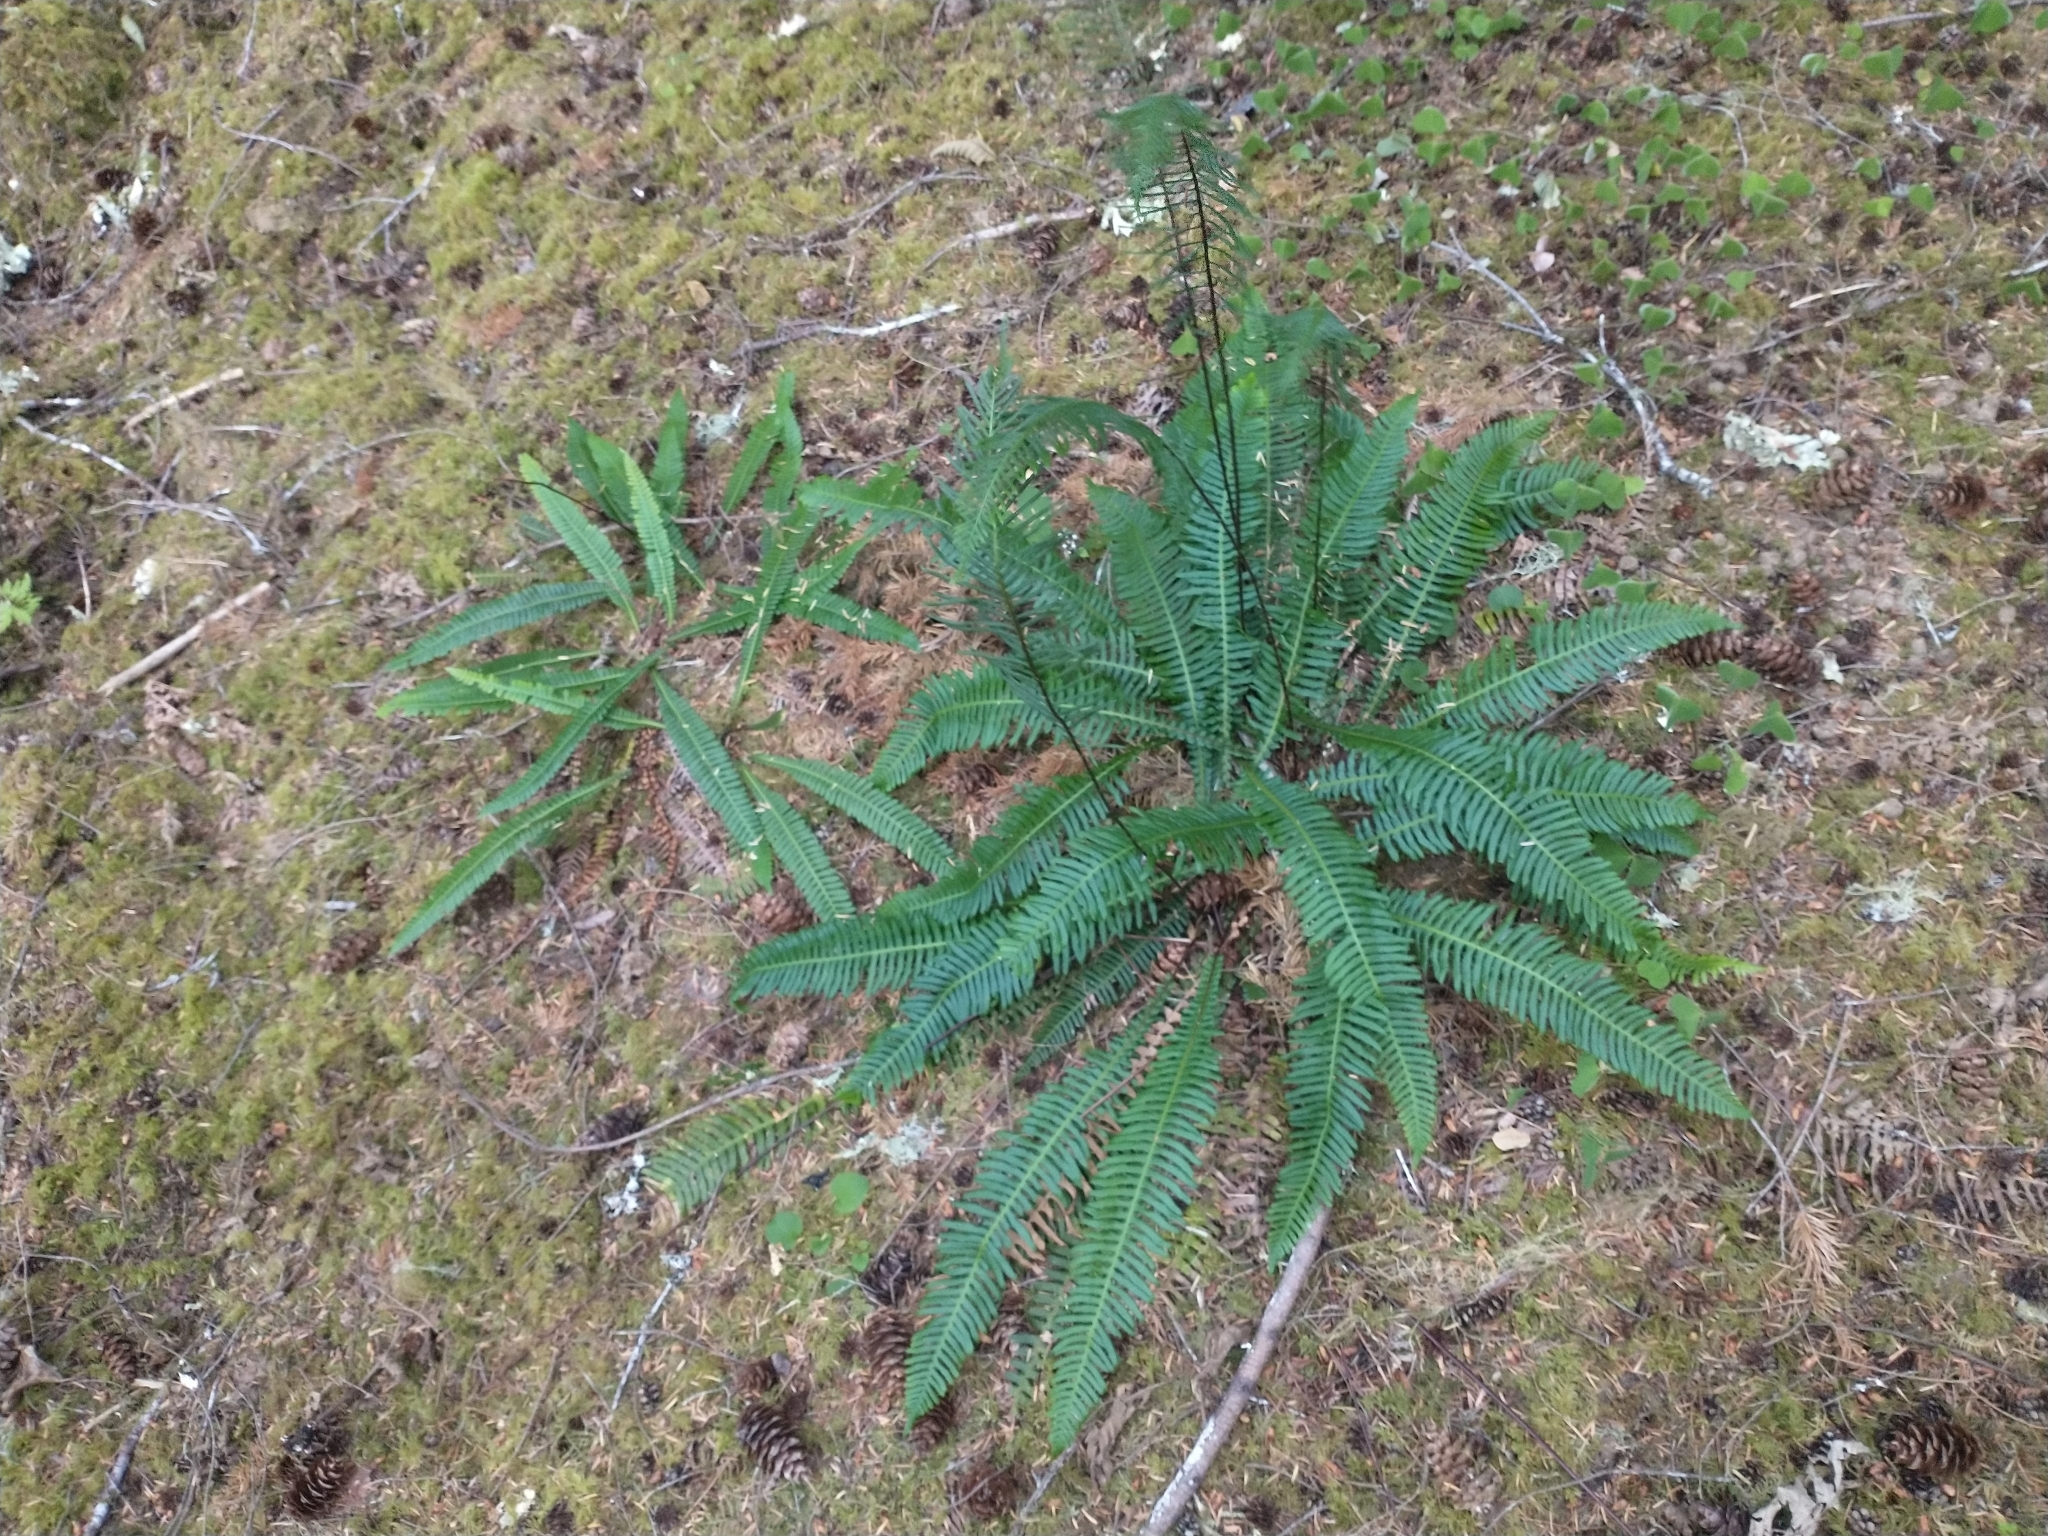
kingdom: Plantae
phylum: Tracheophyta
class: Polypodiopsida
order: Polypodiales
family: Blechnaceae
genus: Struthiopteris
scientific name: Struthiopteris spicant
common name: Deer fern
